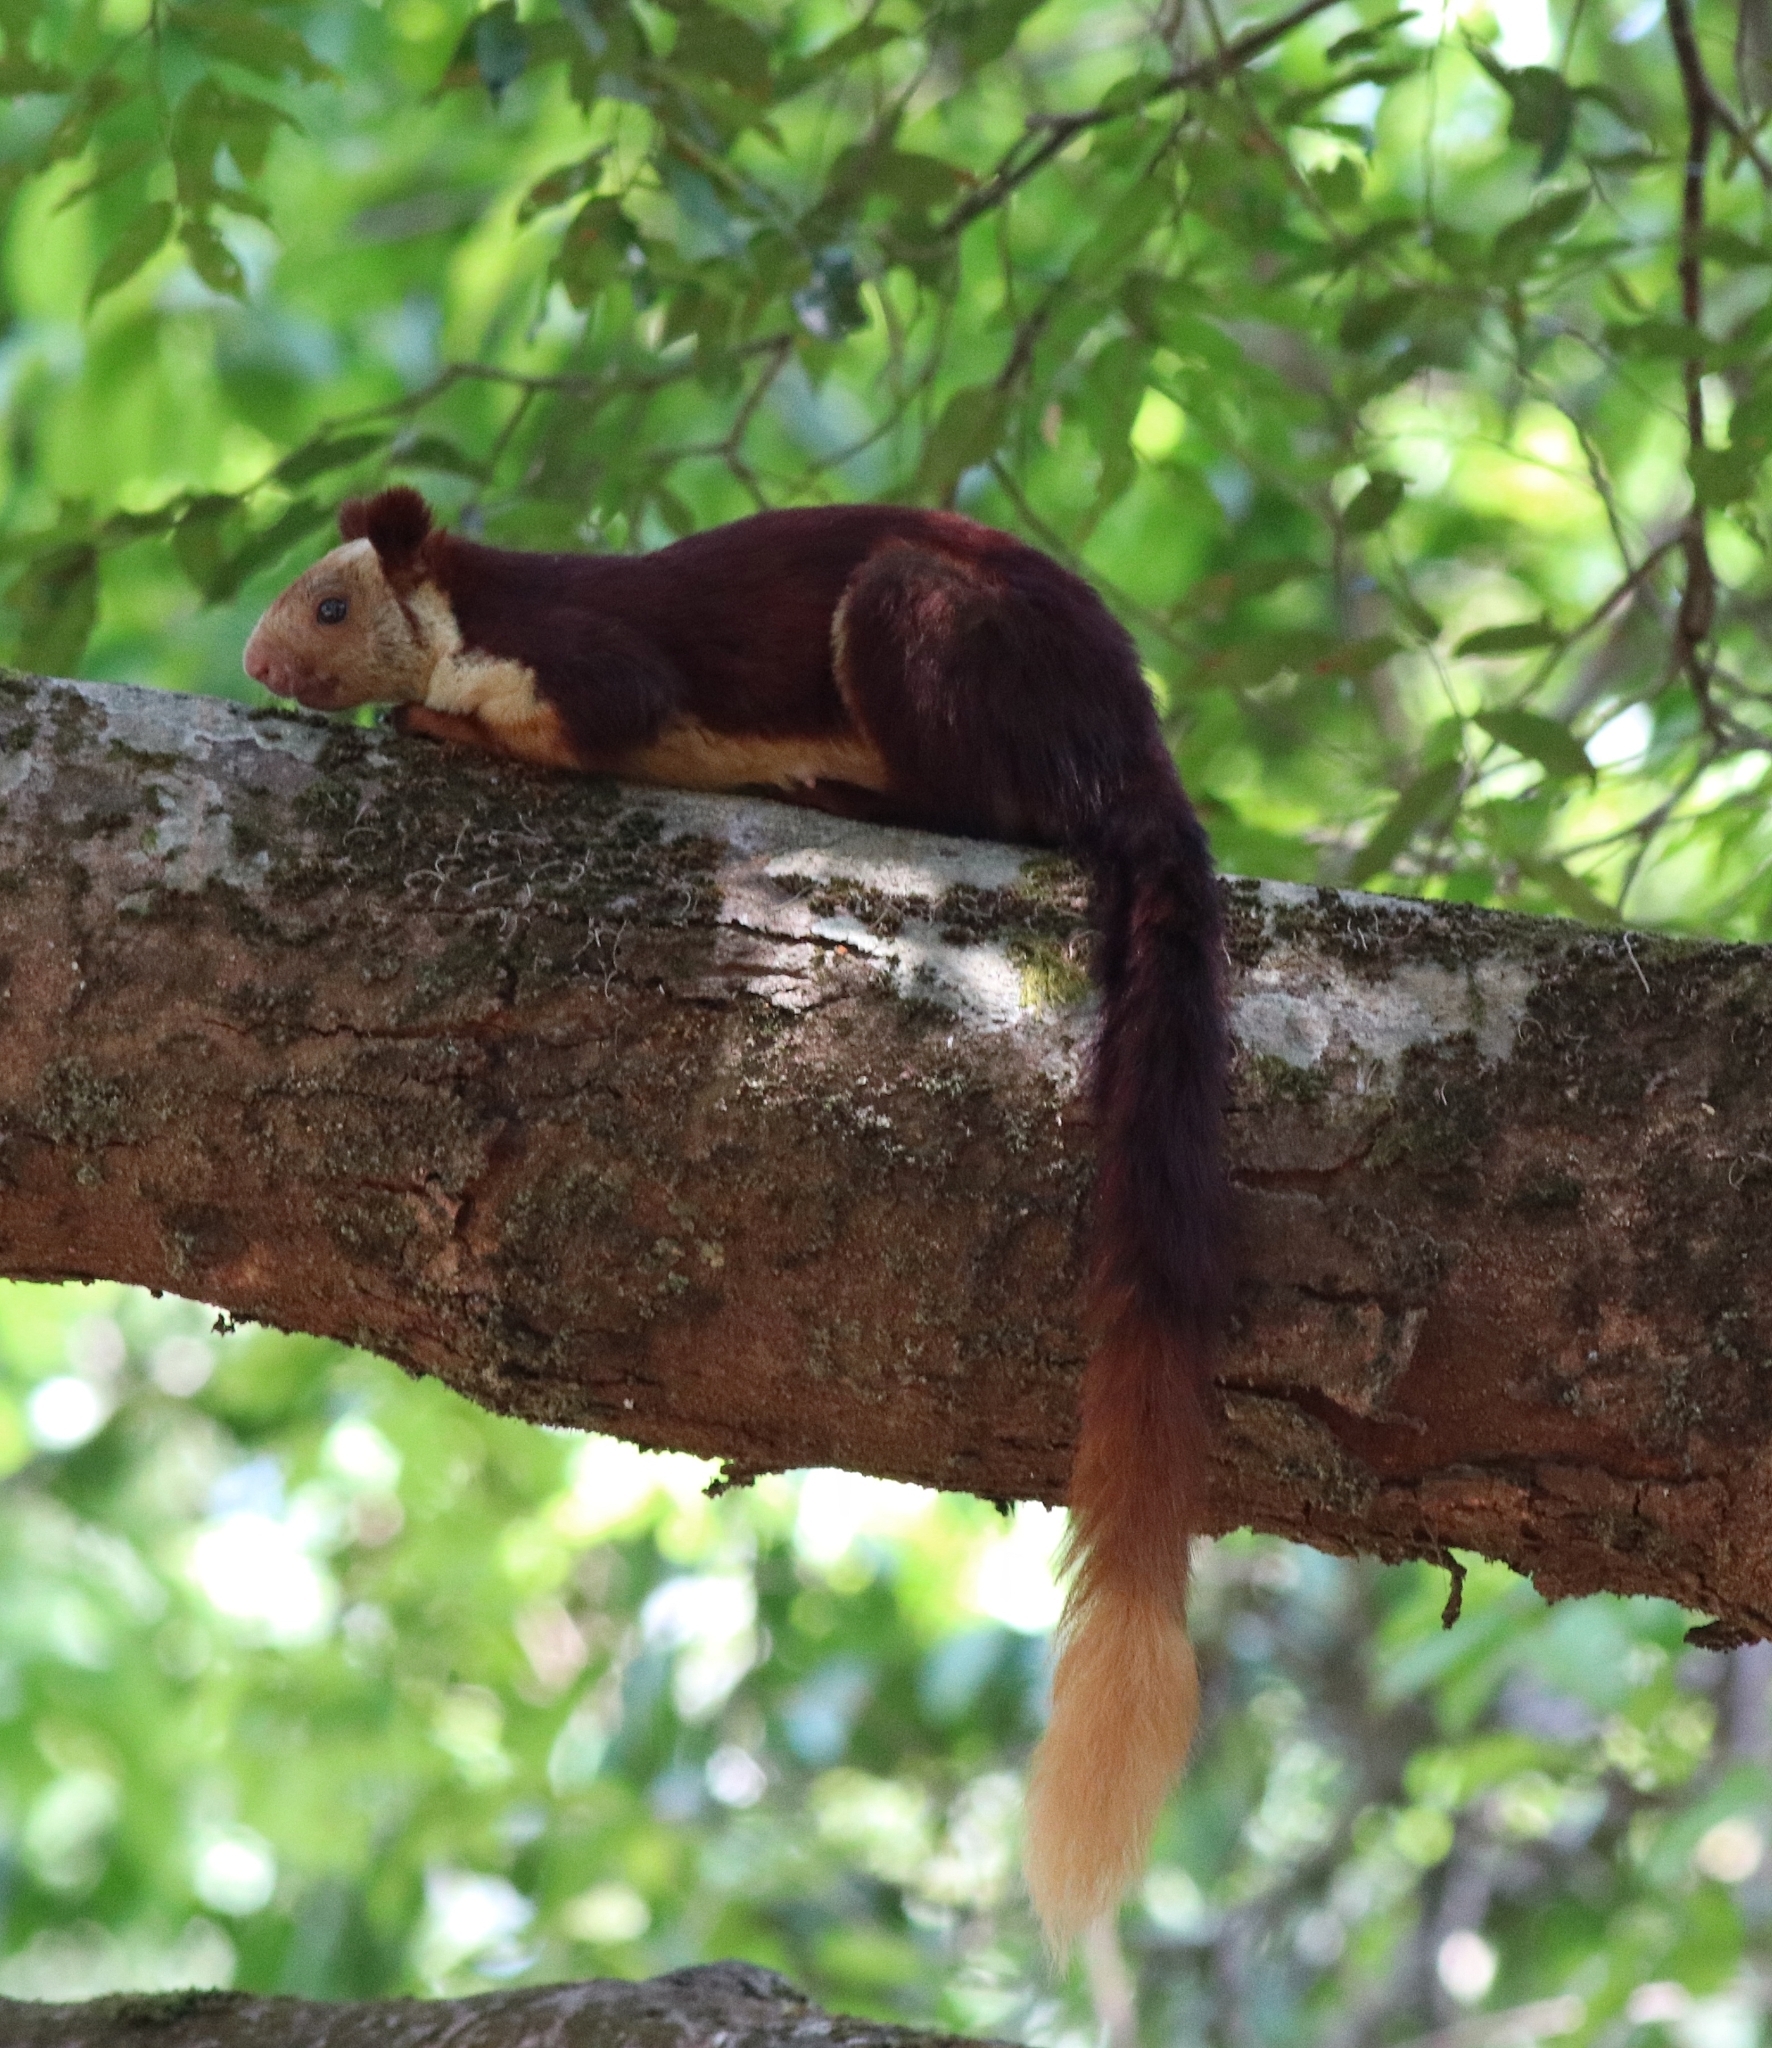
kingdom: Animalia
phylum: Chordata
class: Mammalia
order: Rodentia
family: Sciuridae
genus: Ratufa
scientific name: Ratufa indica
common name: Indian giant squirrel
